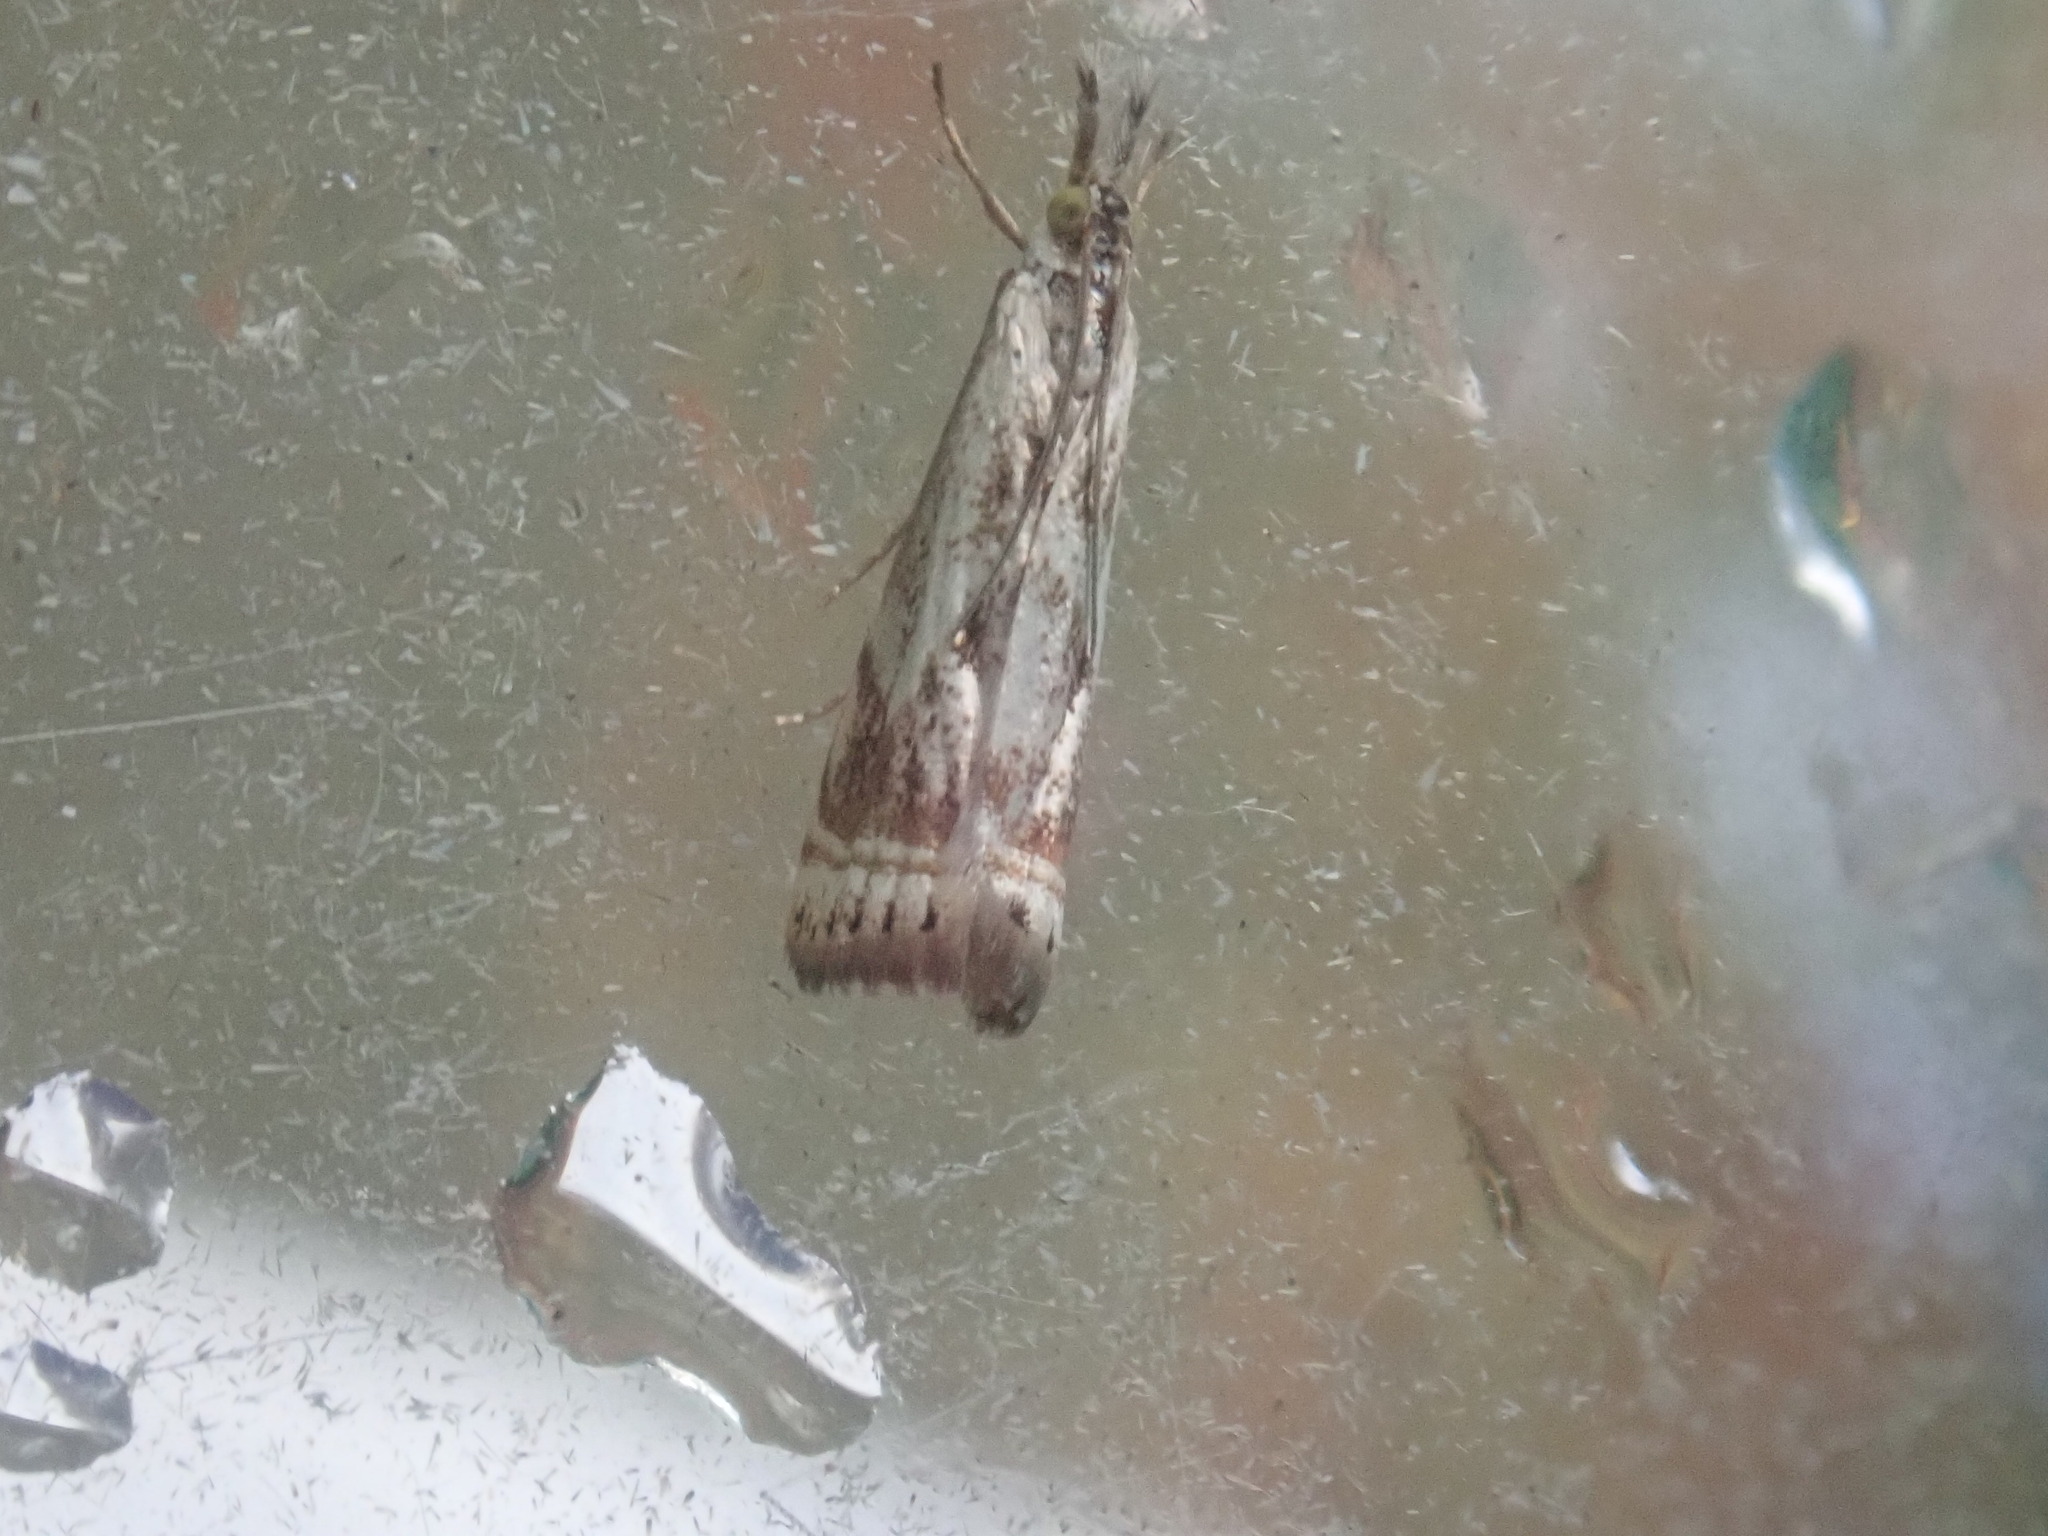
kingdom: Animalia
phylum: Arthropoda
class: Insecta
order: Lepidoptera
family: Crambidae
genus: Microcrambus
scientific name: Microcrambus elegans
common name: Elegant grass-veneer
